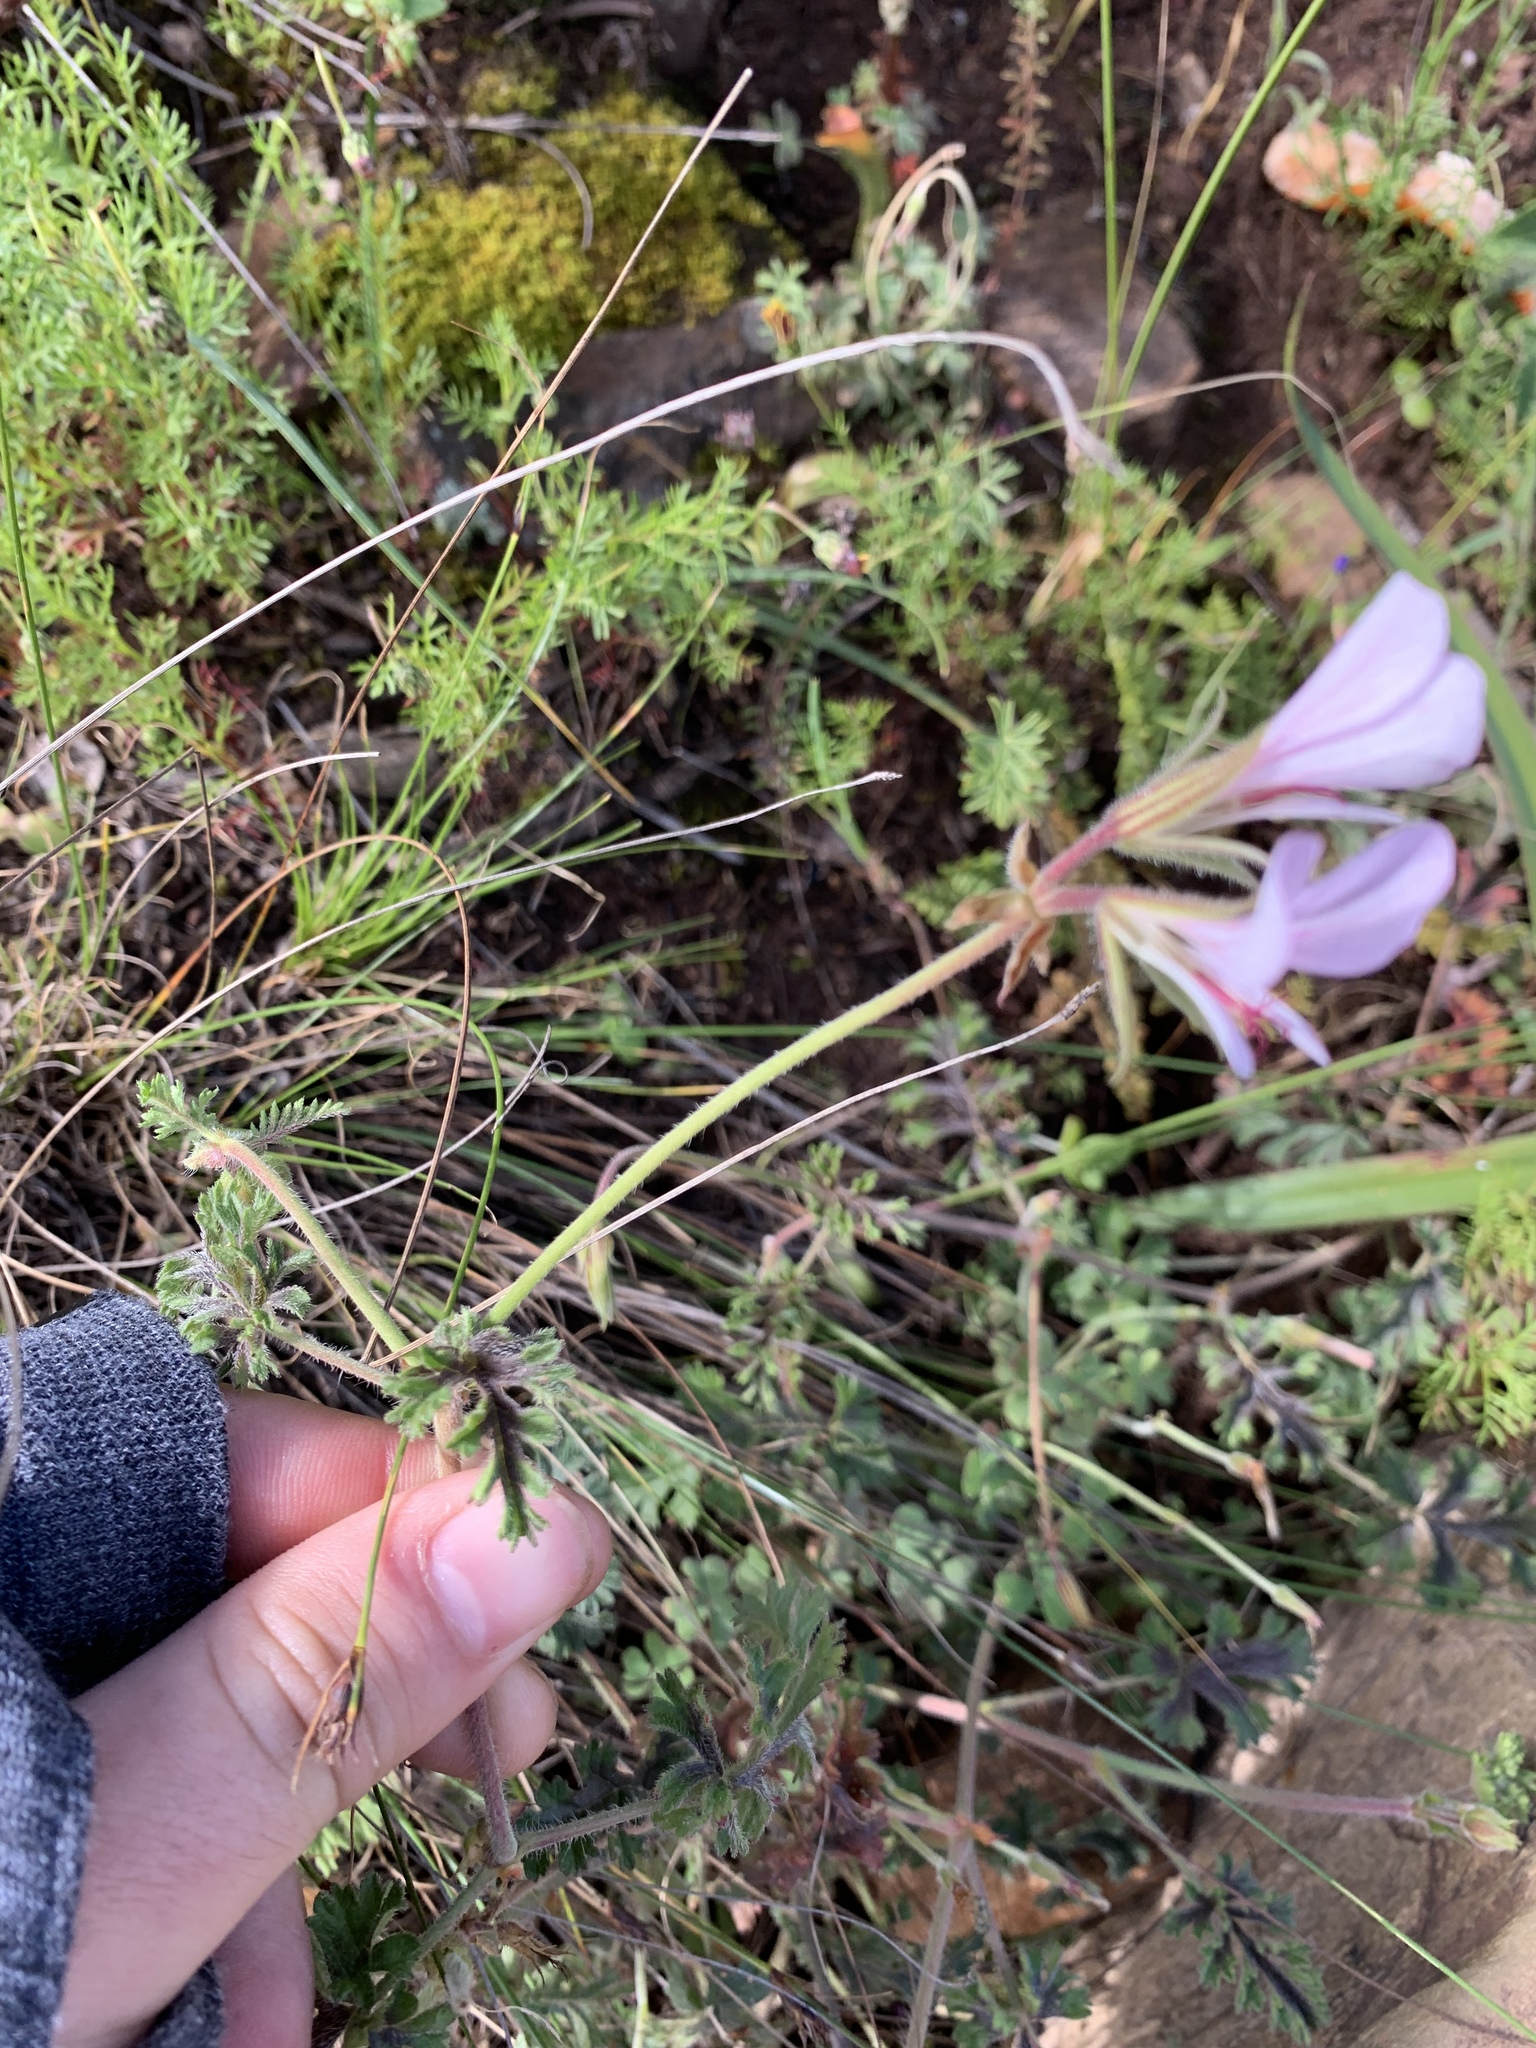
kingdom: Plantae
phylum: Tracheophyta
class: Magnoliopsida
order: Geraniales
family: Geraniaceae
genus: Pelargonium
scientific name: Pelargonium myrrhifolium
